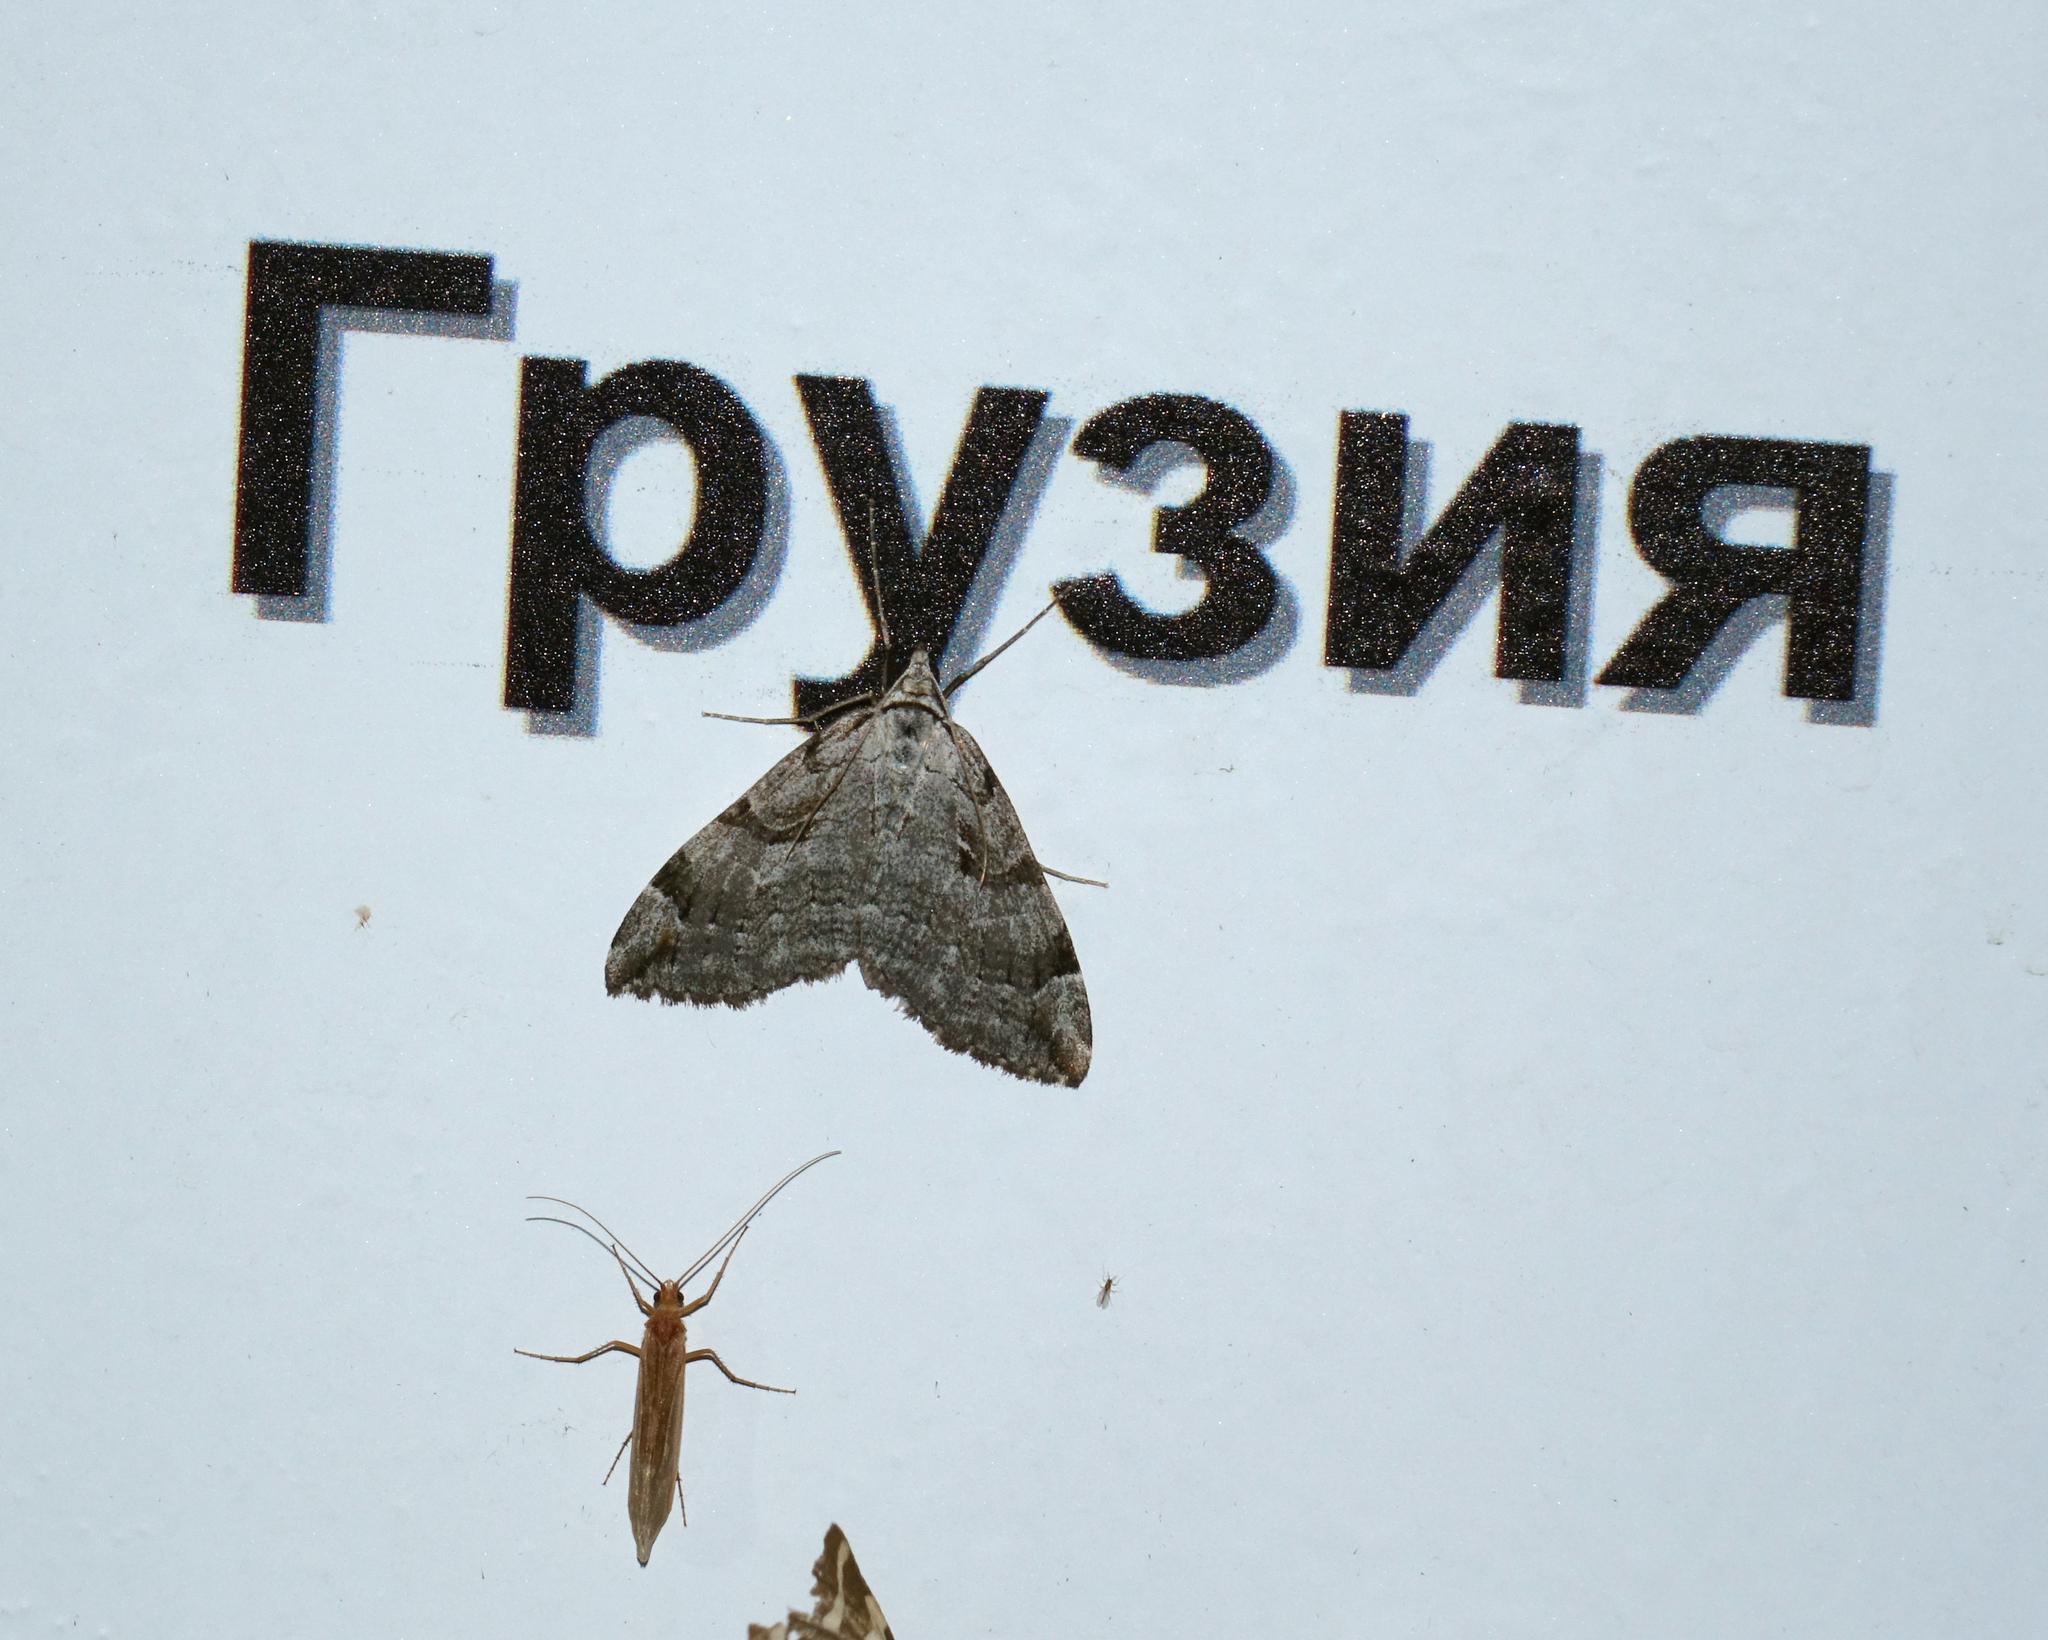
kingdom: Animalia
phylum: Arthropoda
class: Insecta
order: Lepidoptera
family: Geometridae
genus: Aplocera
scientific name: Aplocera plagiata
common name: Treble-bar
